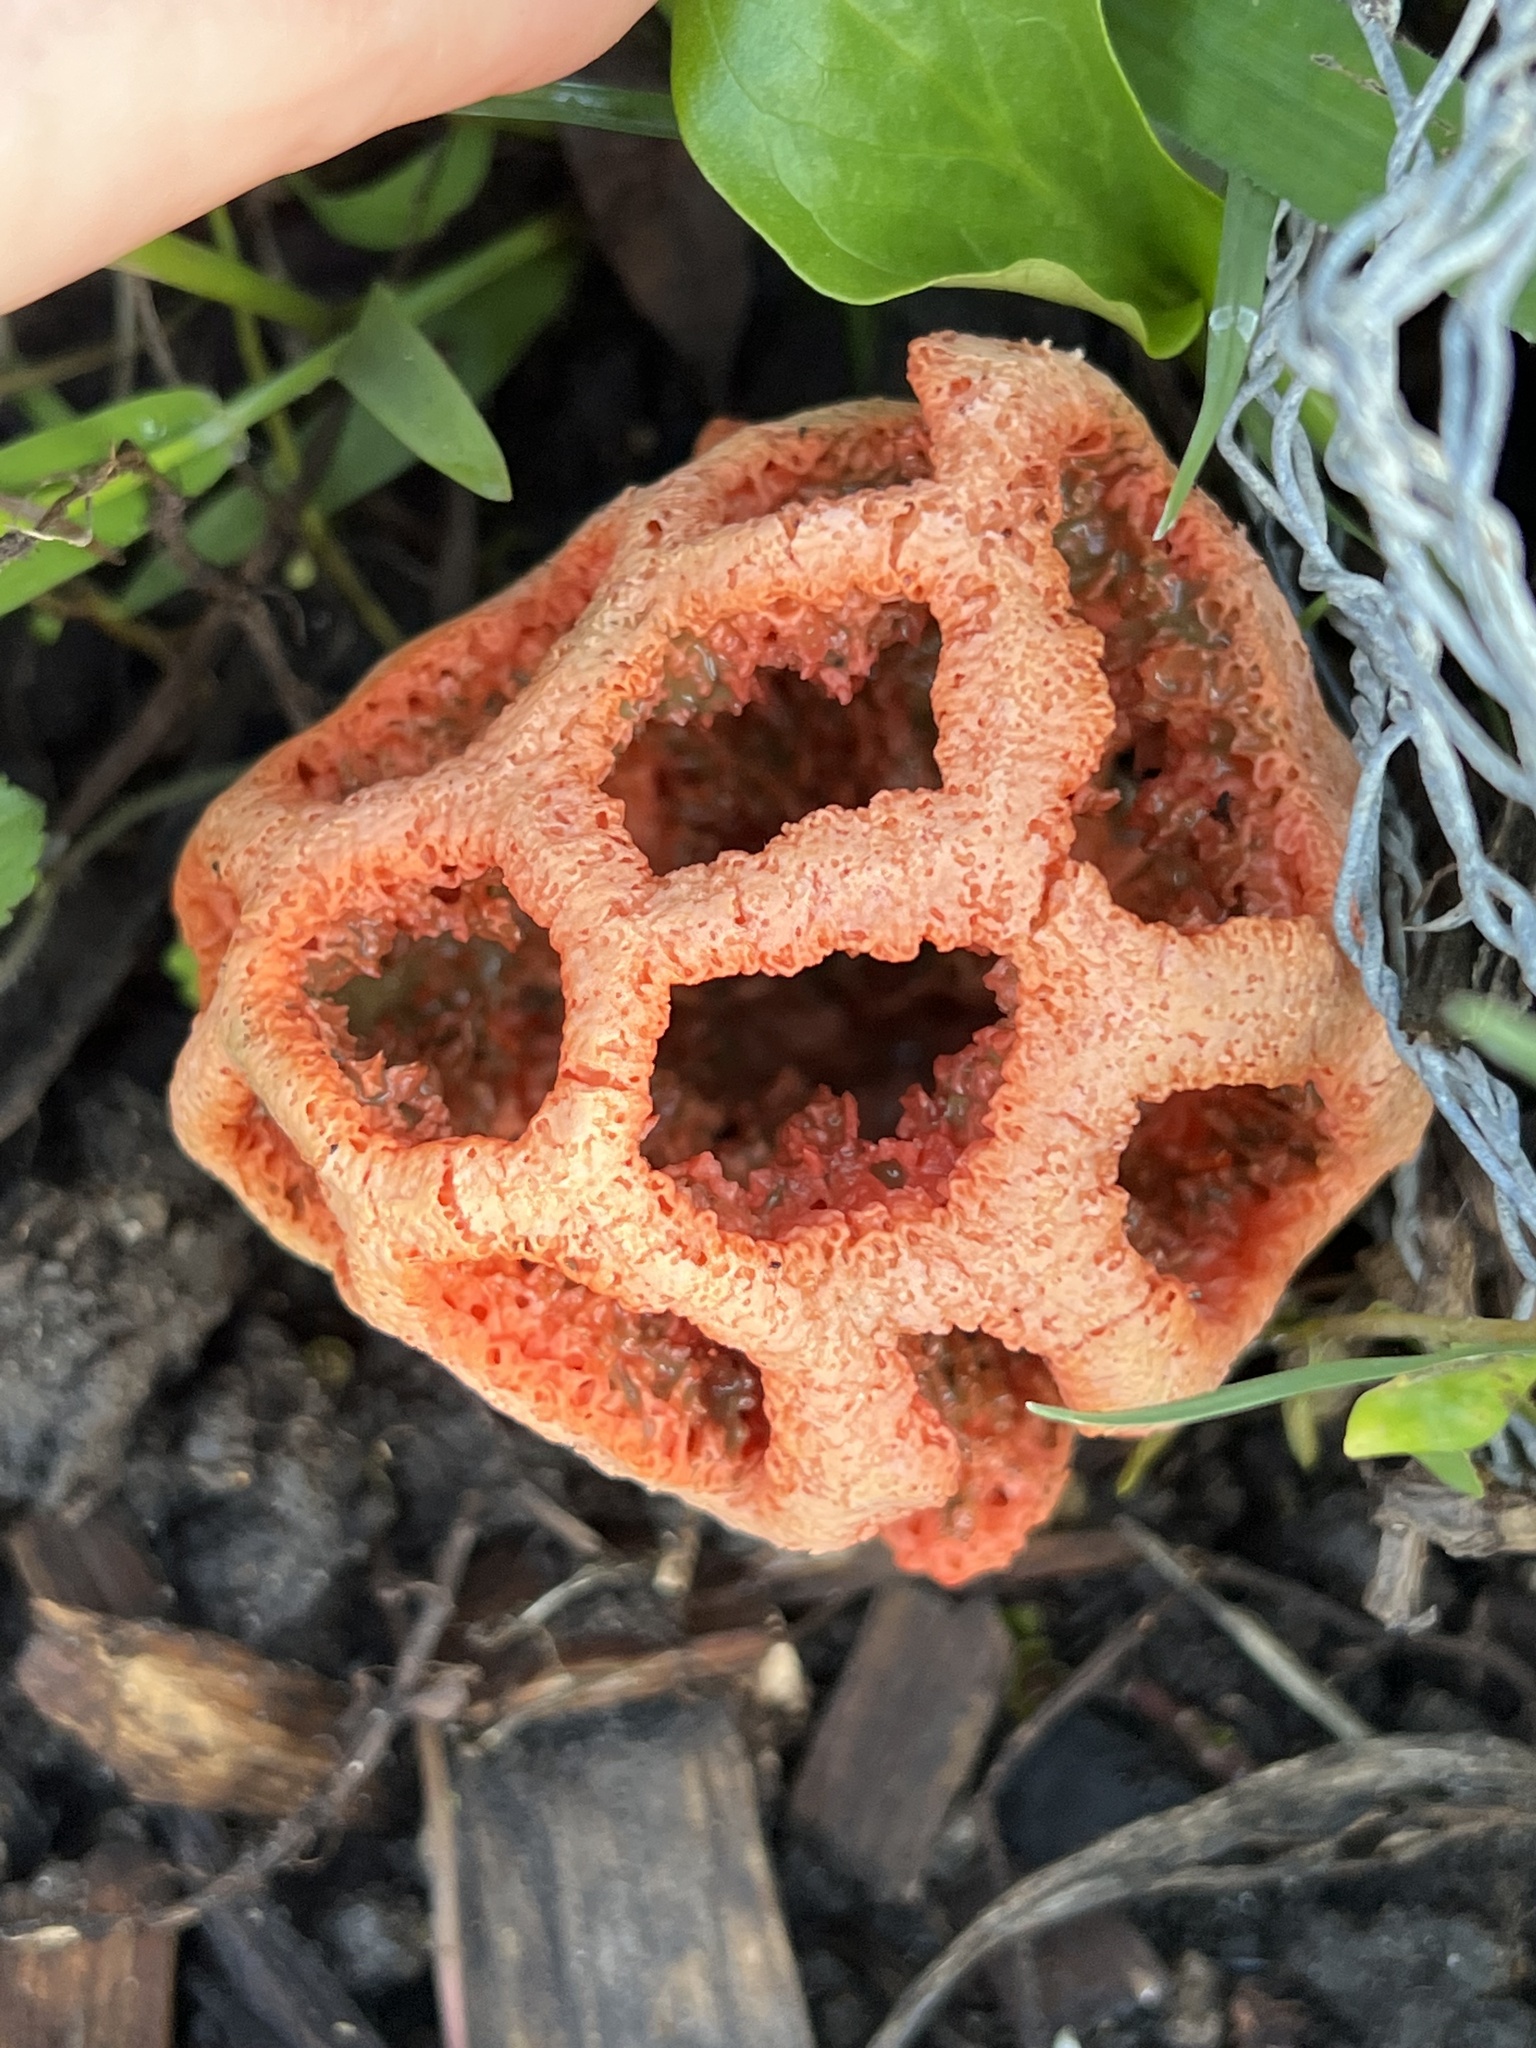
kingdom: Fungi
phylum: Basidiomycota
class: Agaricomycetes
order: Phallales
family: Phallaceae
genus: Clathrus
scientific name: Clathrus ruber
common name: Red cage
